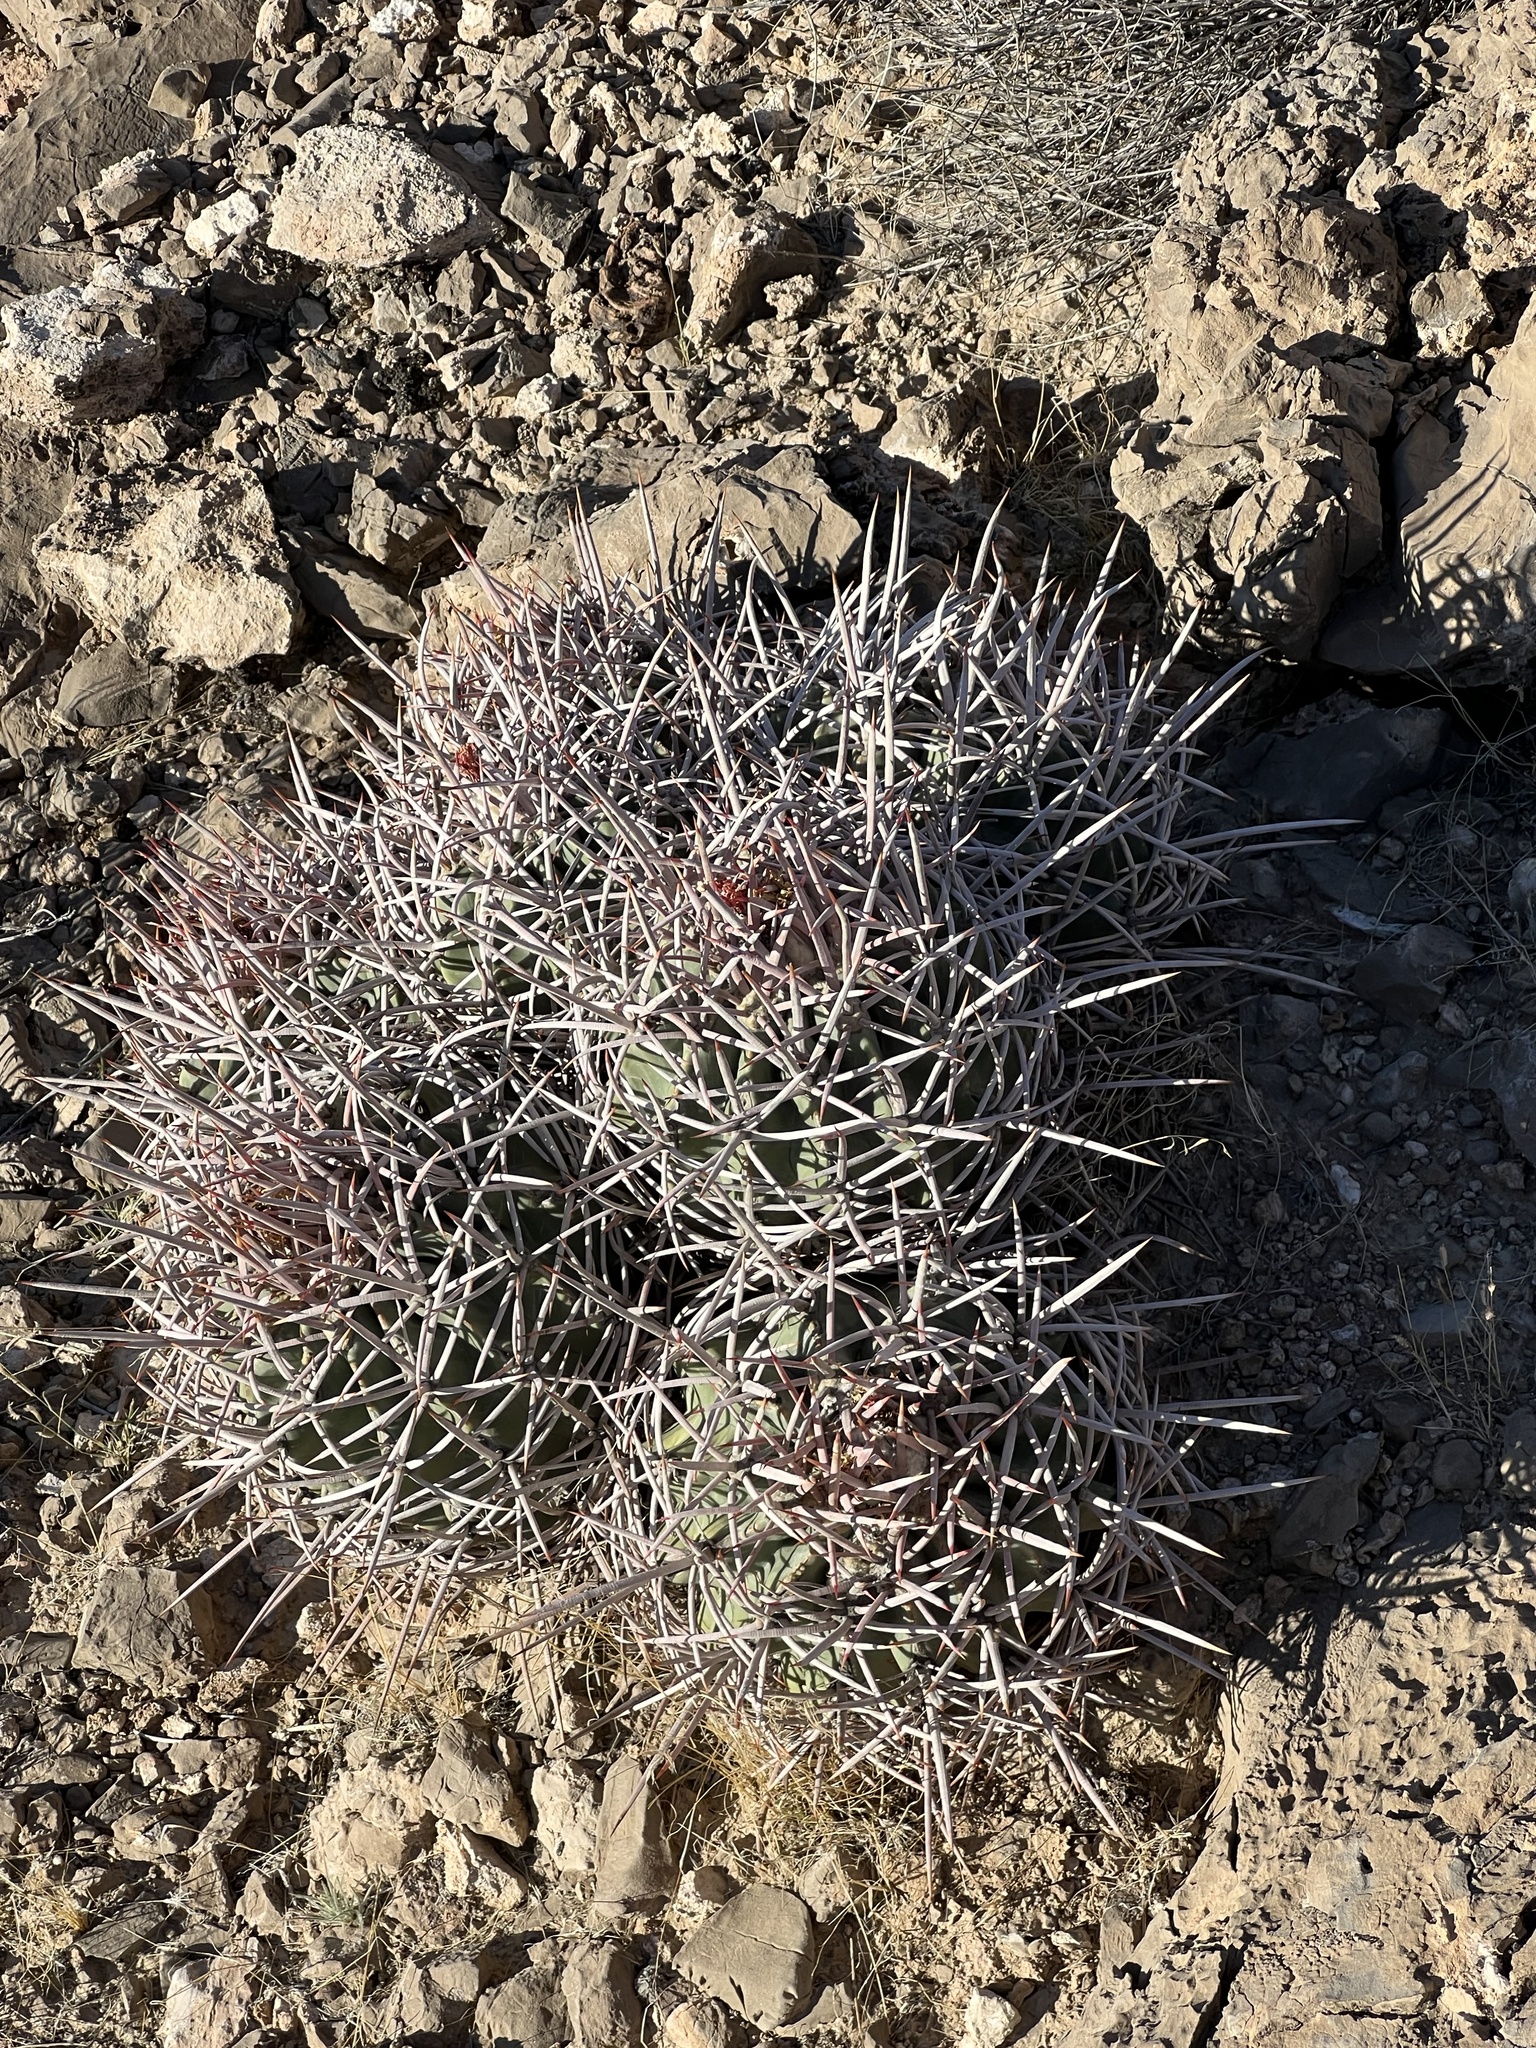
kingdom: Plantae
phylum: Tracheophyta
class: Magnoliopsida
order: Caryophyllales
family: Cactaceae
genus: Echinocactus
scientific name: Echinocactus polycephalus
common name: Cottontop cactus
